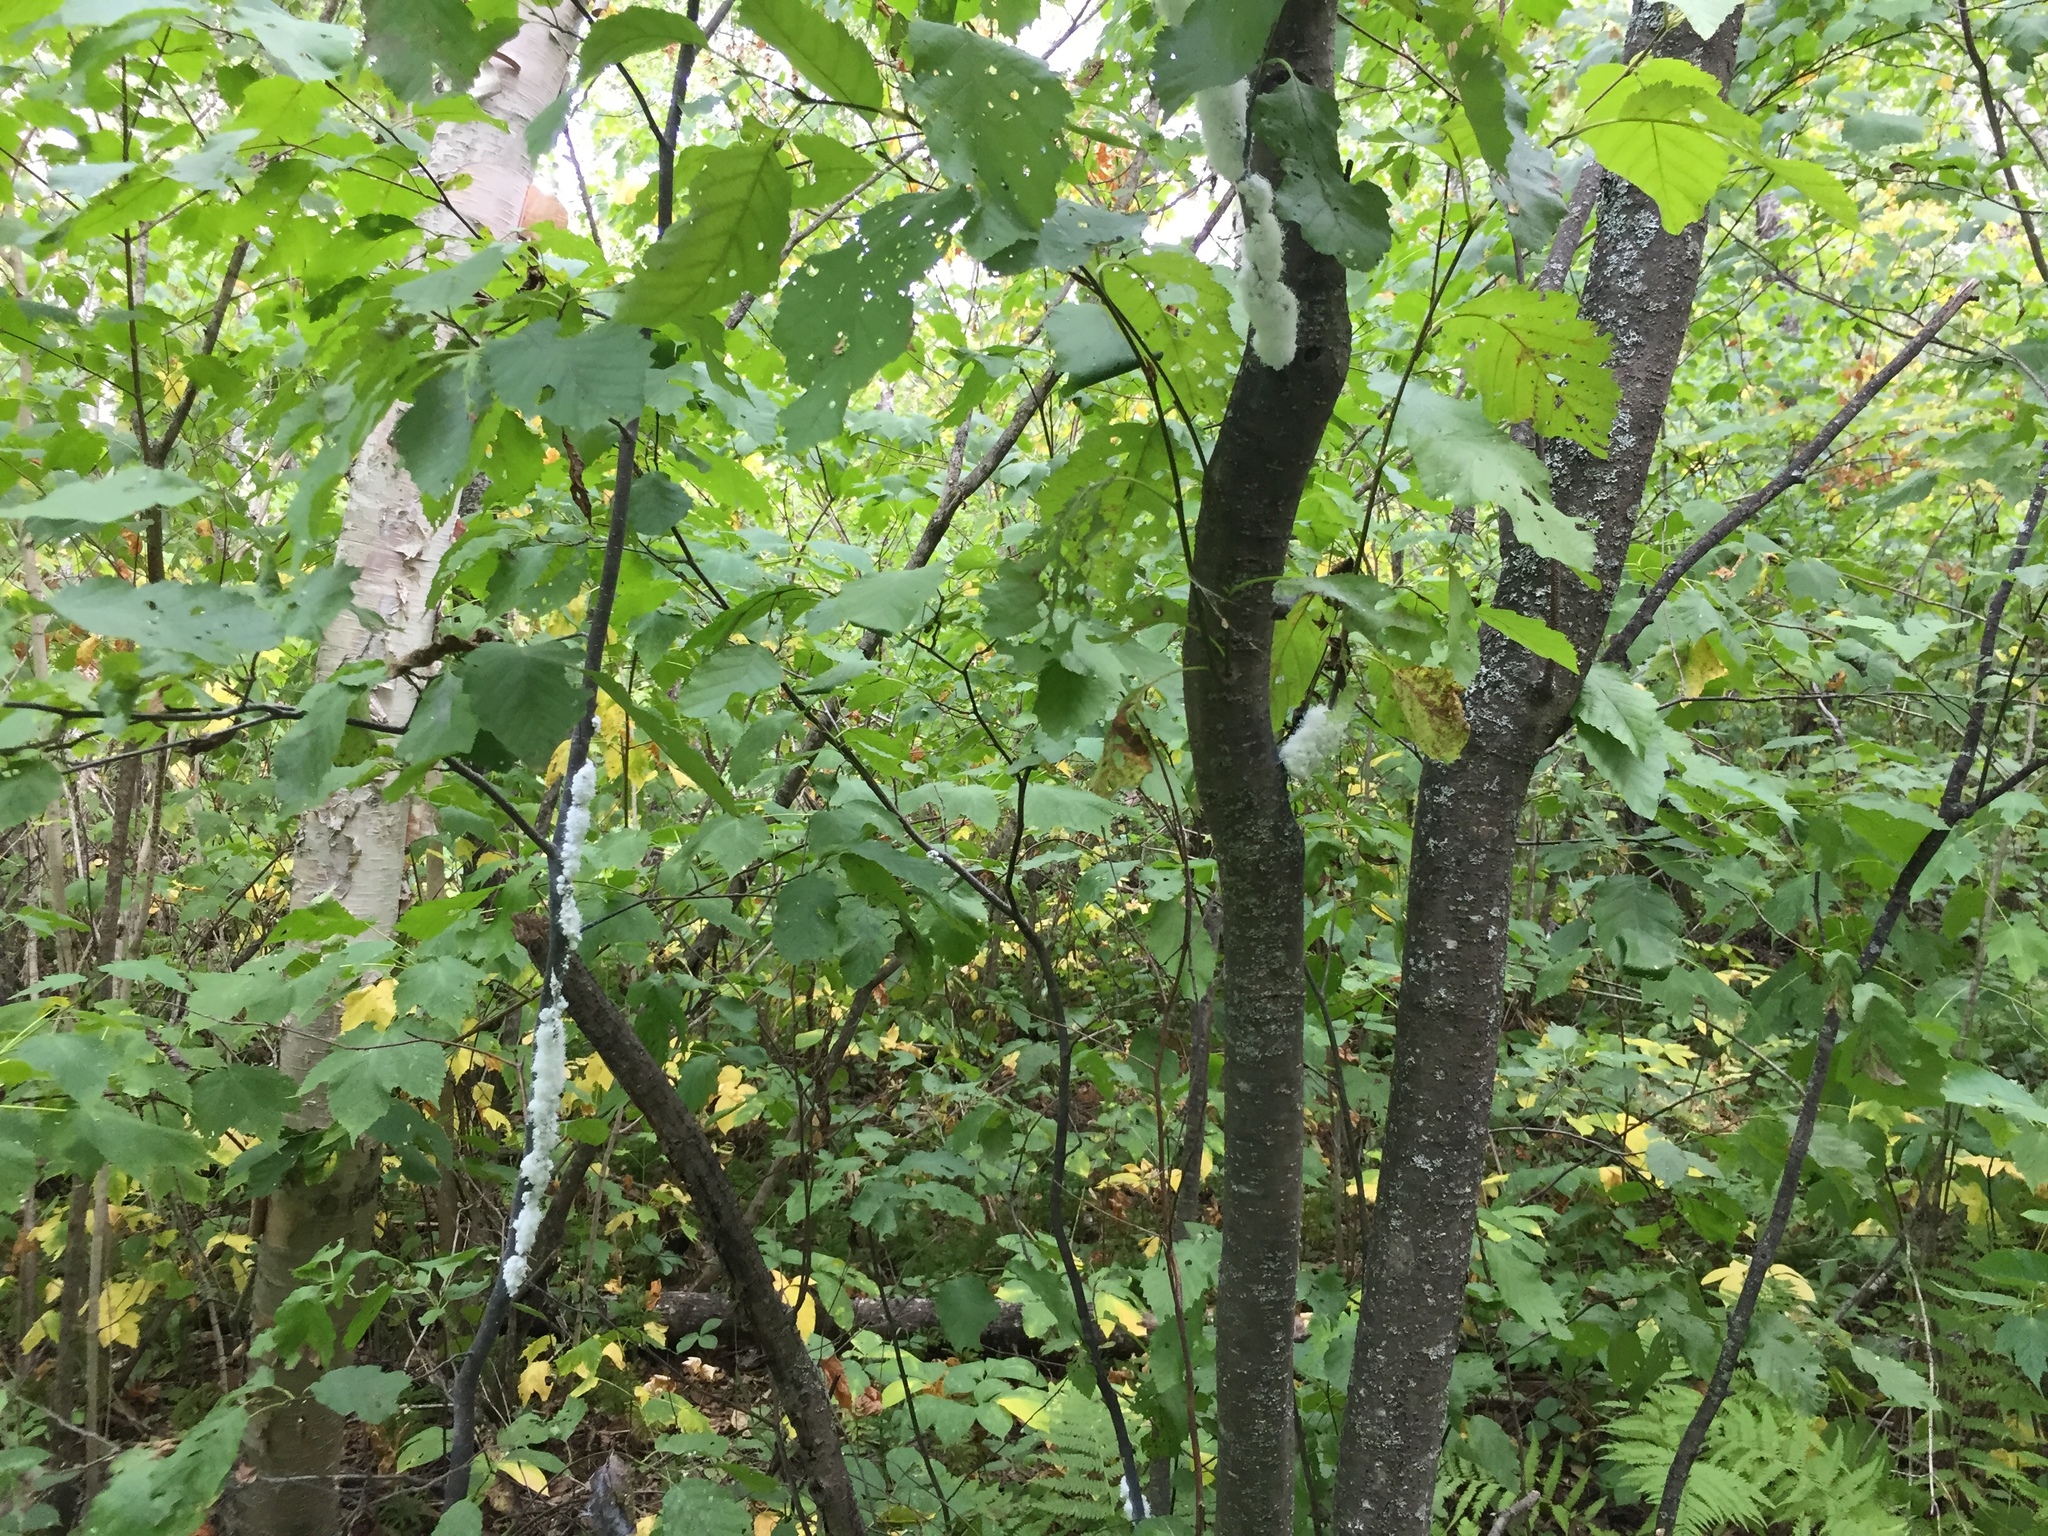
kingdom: Animalia
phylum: Arthropoda
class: Insecta
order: Hemiptera
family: Aphididae
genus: Prociphilus
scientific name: Prociphilus tessellatus
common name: Woolly alder aphid
